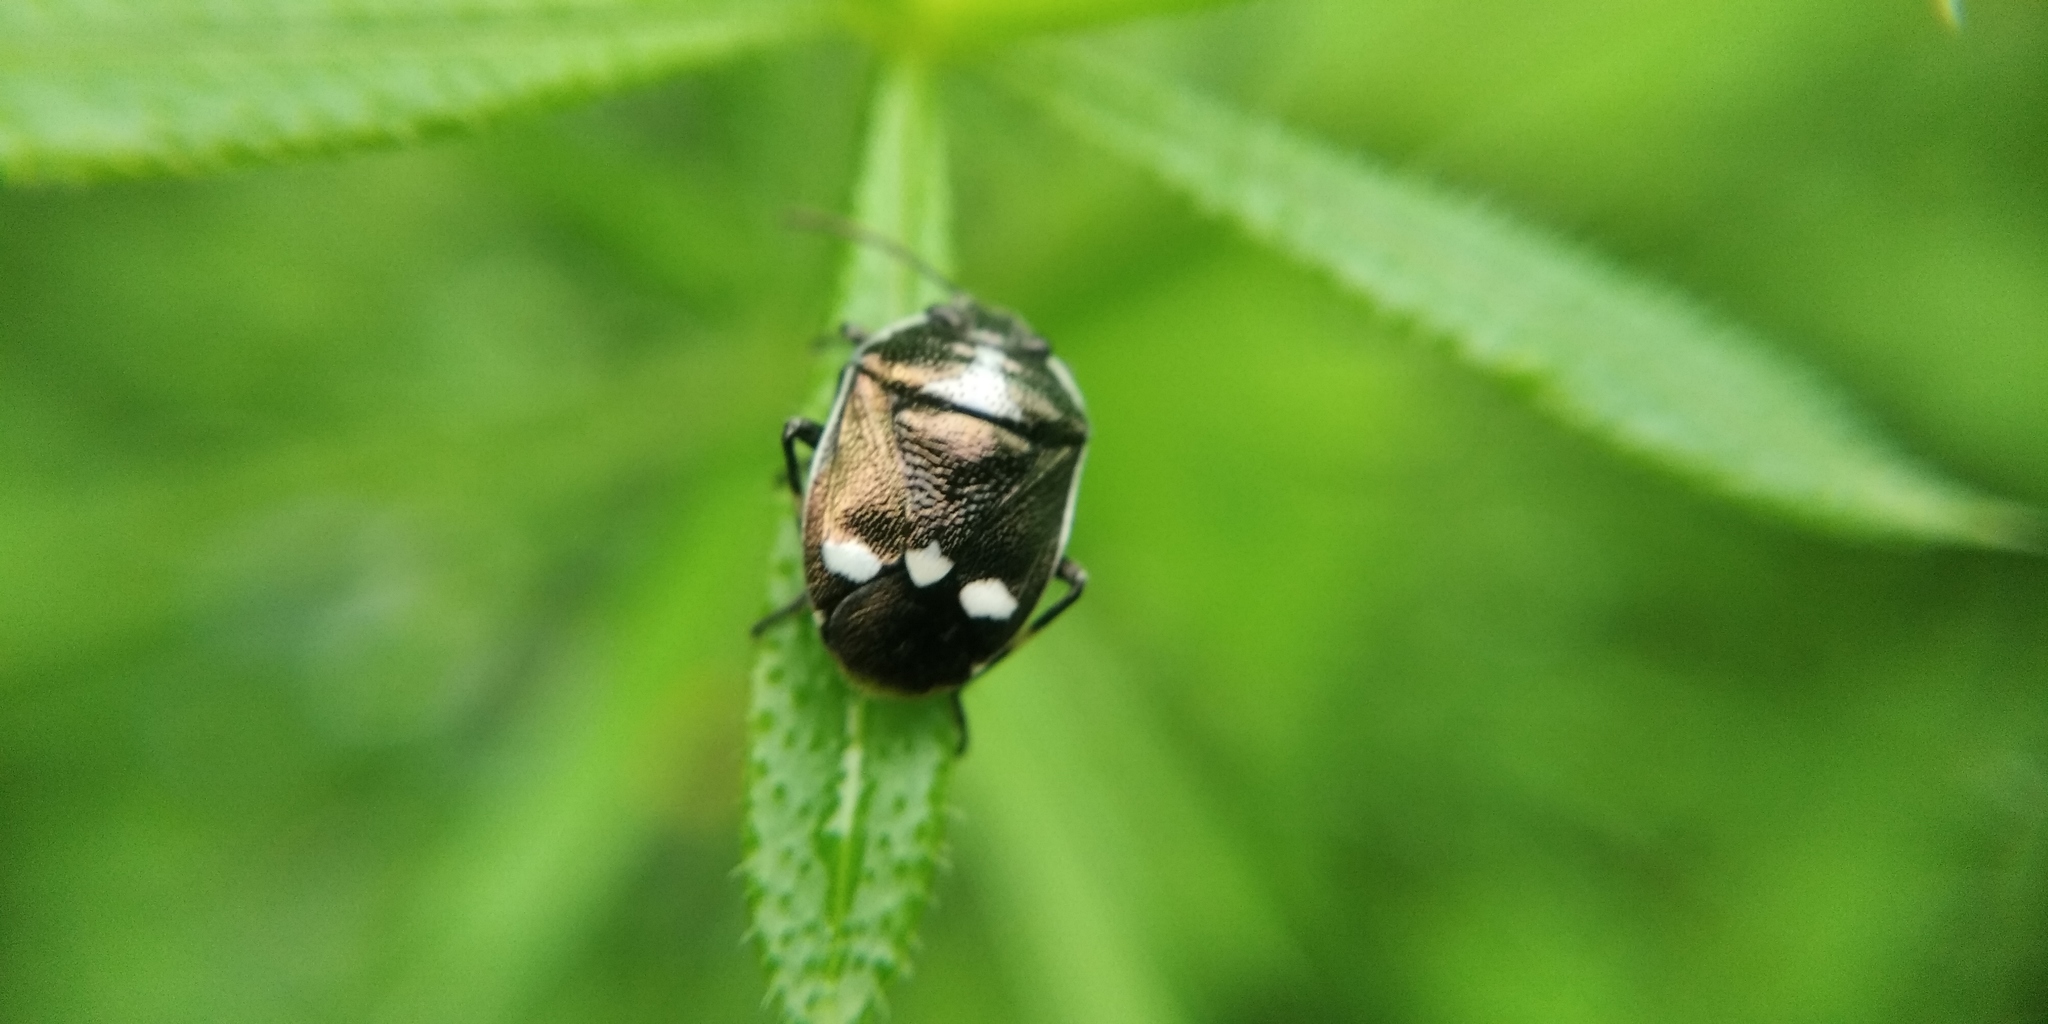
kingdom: Animalia
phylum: Arthropoda
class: Insecta
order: Hemiptera
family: Pentatomidae
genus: Eurydema
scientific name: Eurydema oleracea
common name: Cabbage bug
